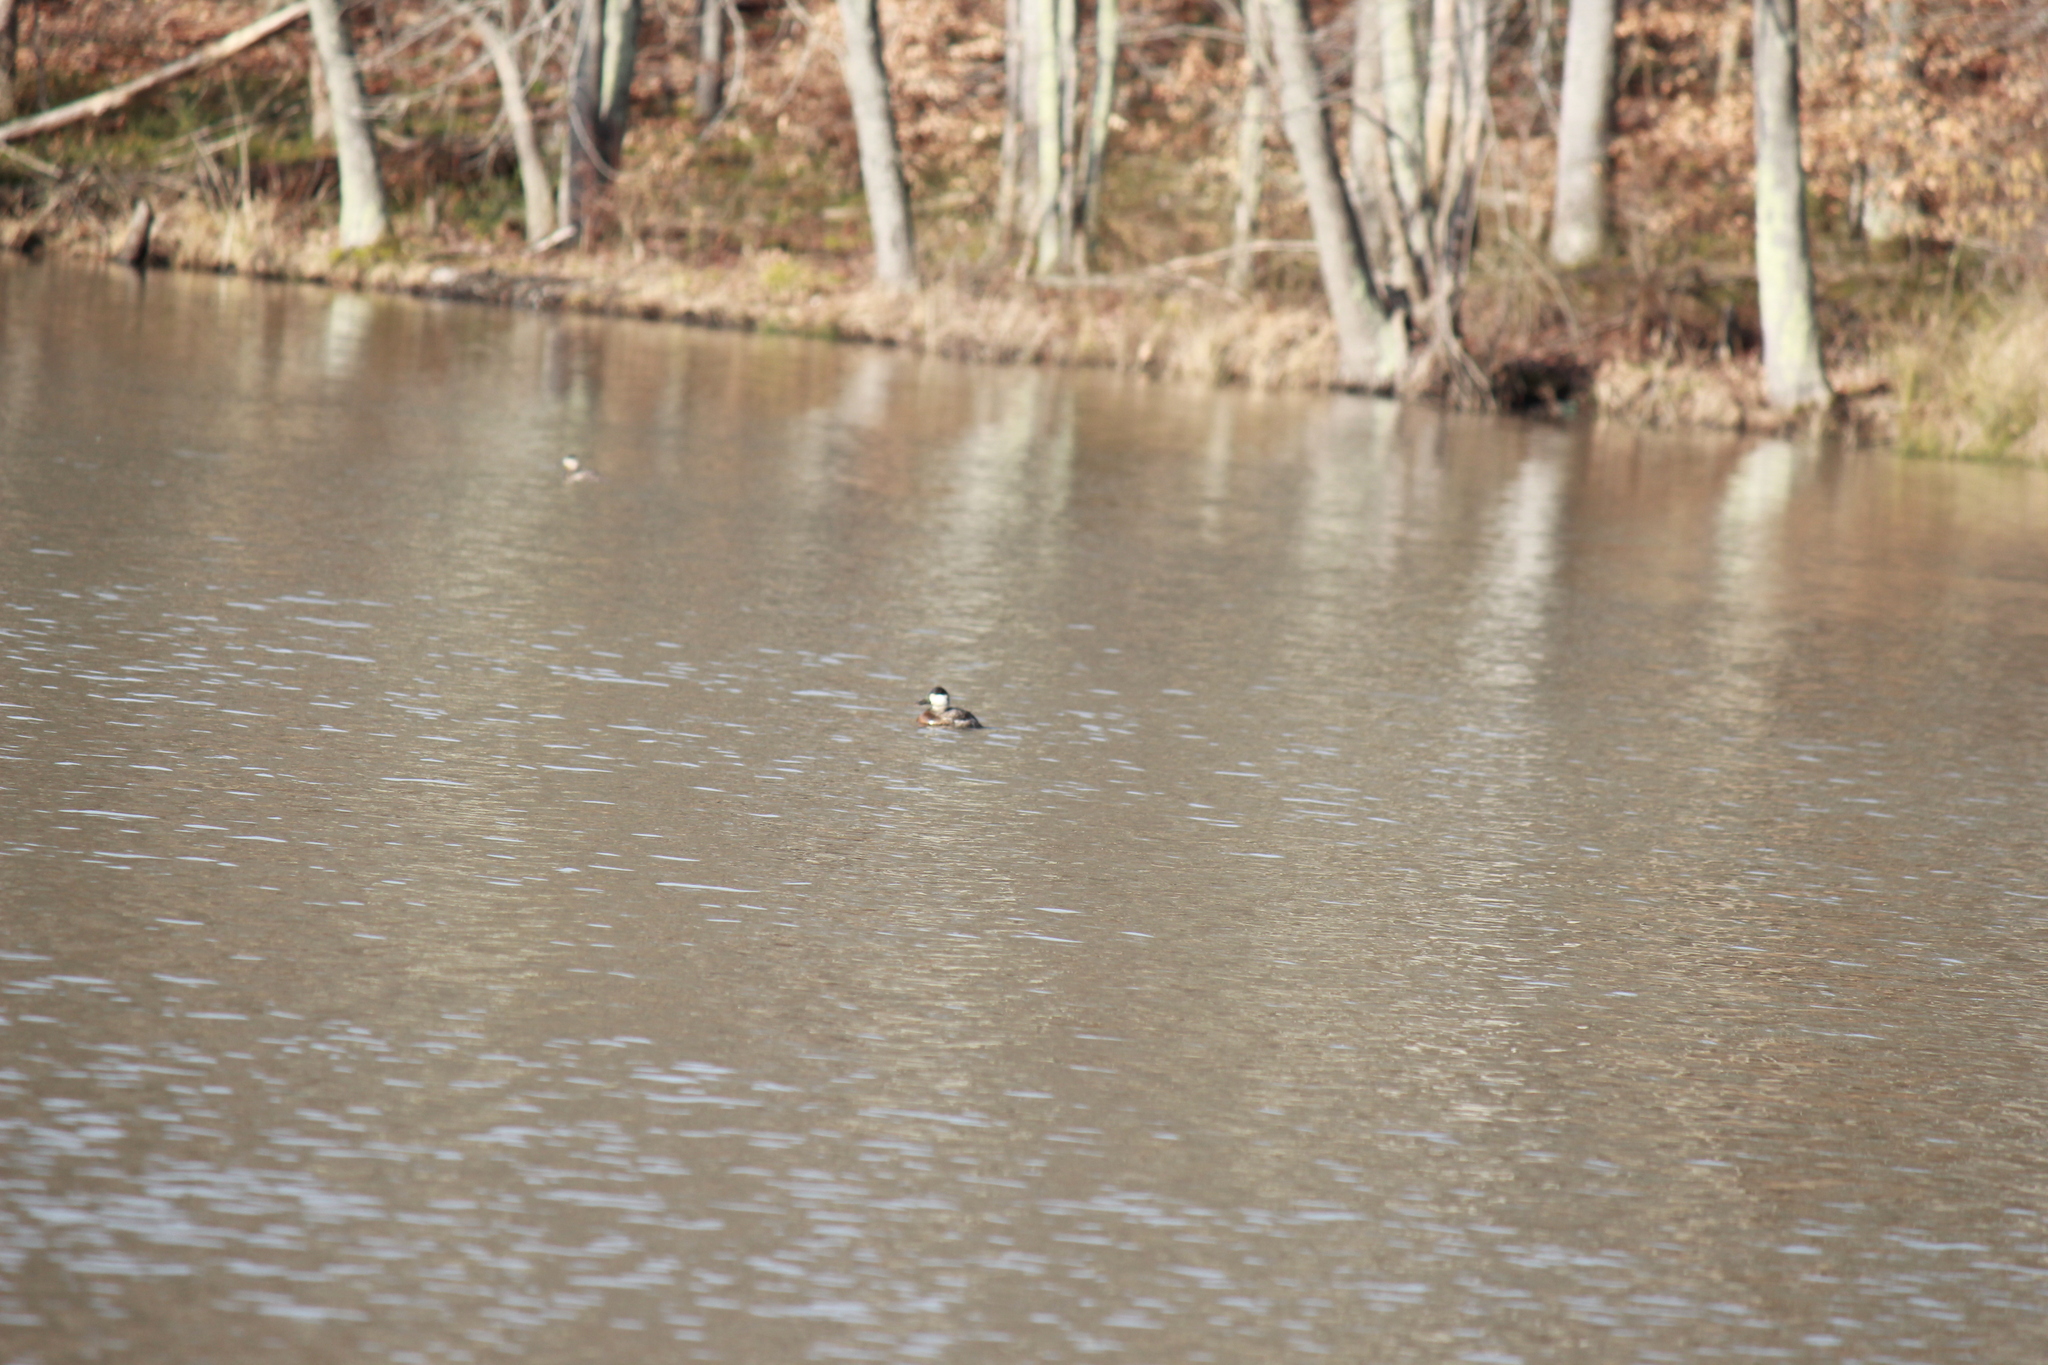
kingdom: Animalia
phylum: Chordata
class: Aves
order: Anseriformes
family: Anatidae
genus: Oxyura
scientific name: Oxyura jamaicensis
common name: Ruddy duck
